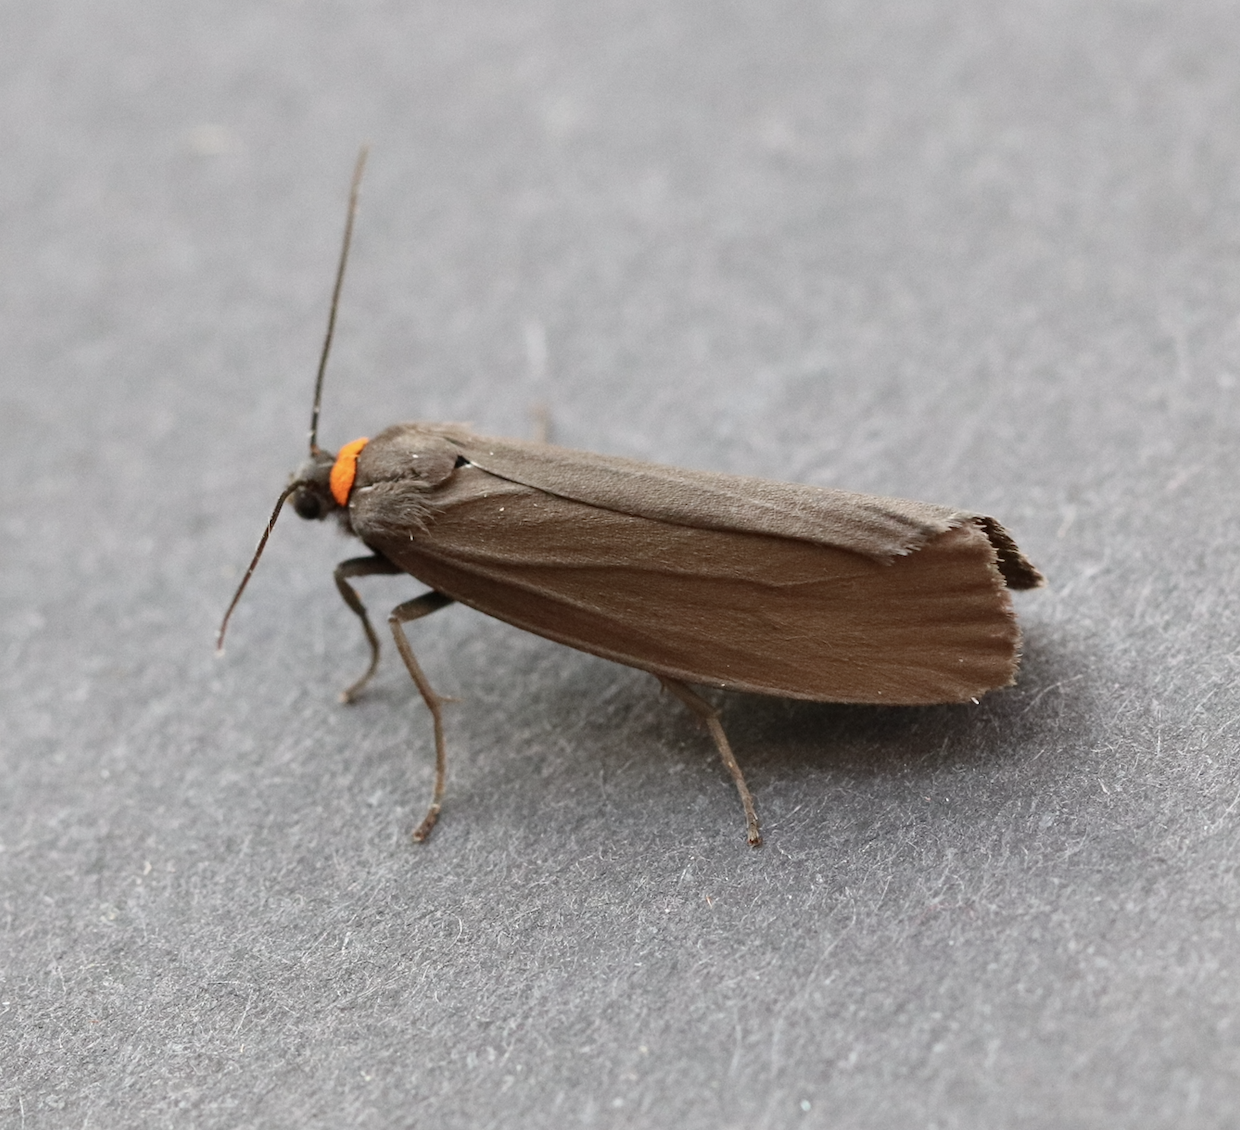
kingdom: Animalia
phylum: Arthropoda
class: Insecta
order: Lepidoptera
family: Erebidae
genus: Atolmis
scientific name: Atolmis rubricollis
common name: Red-necked footman
